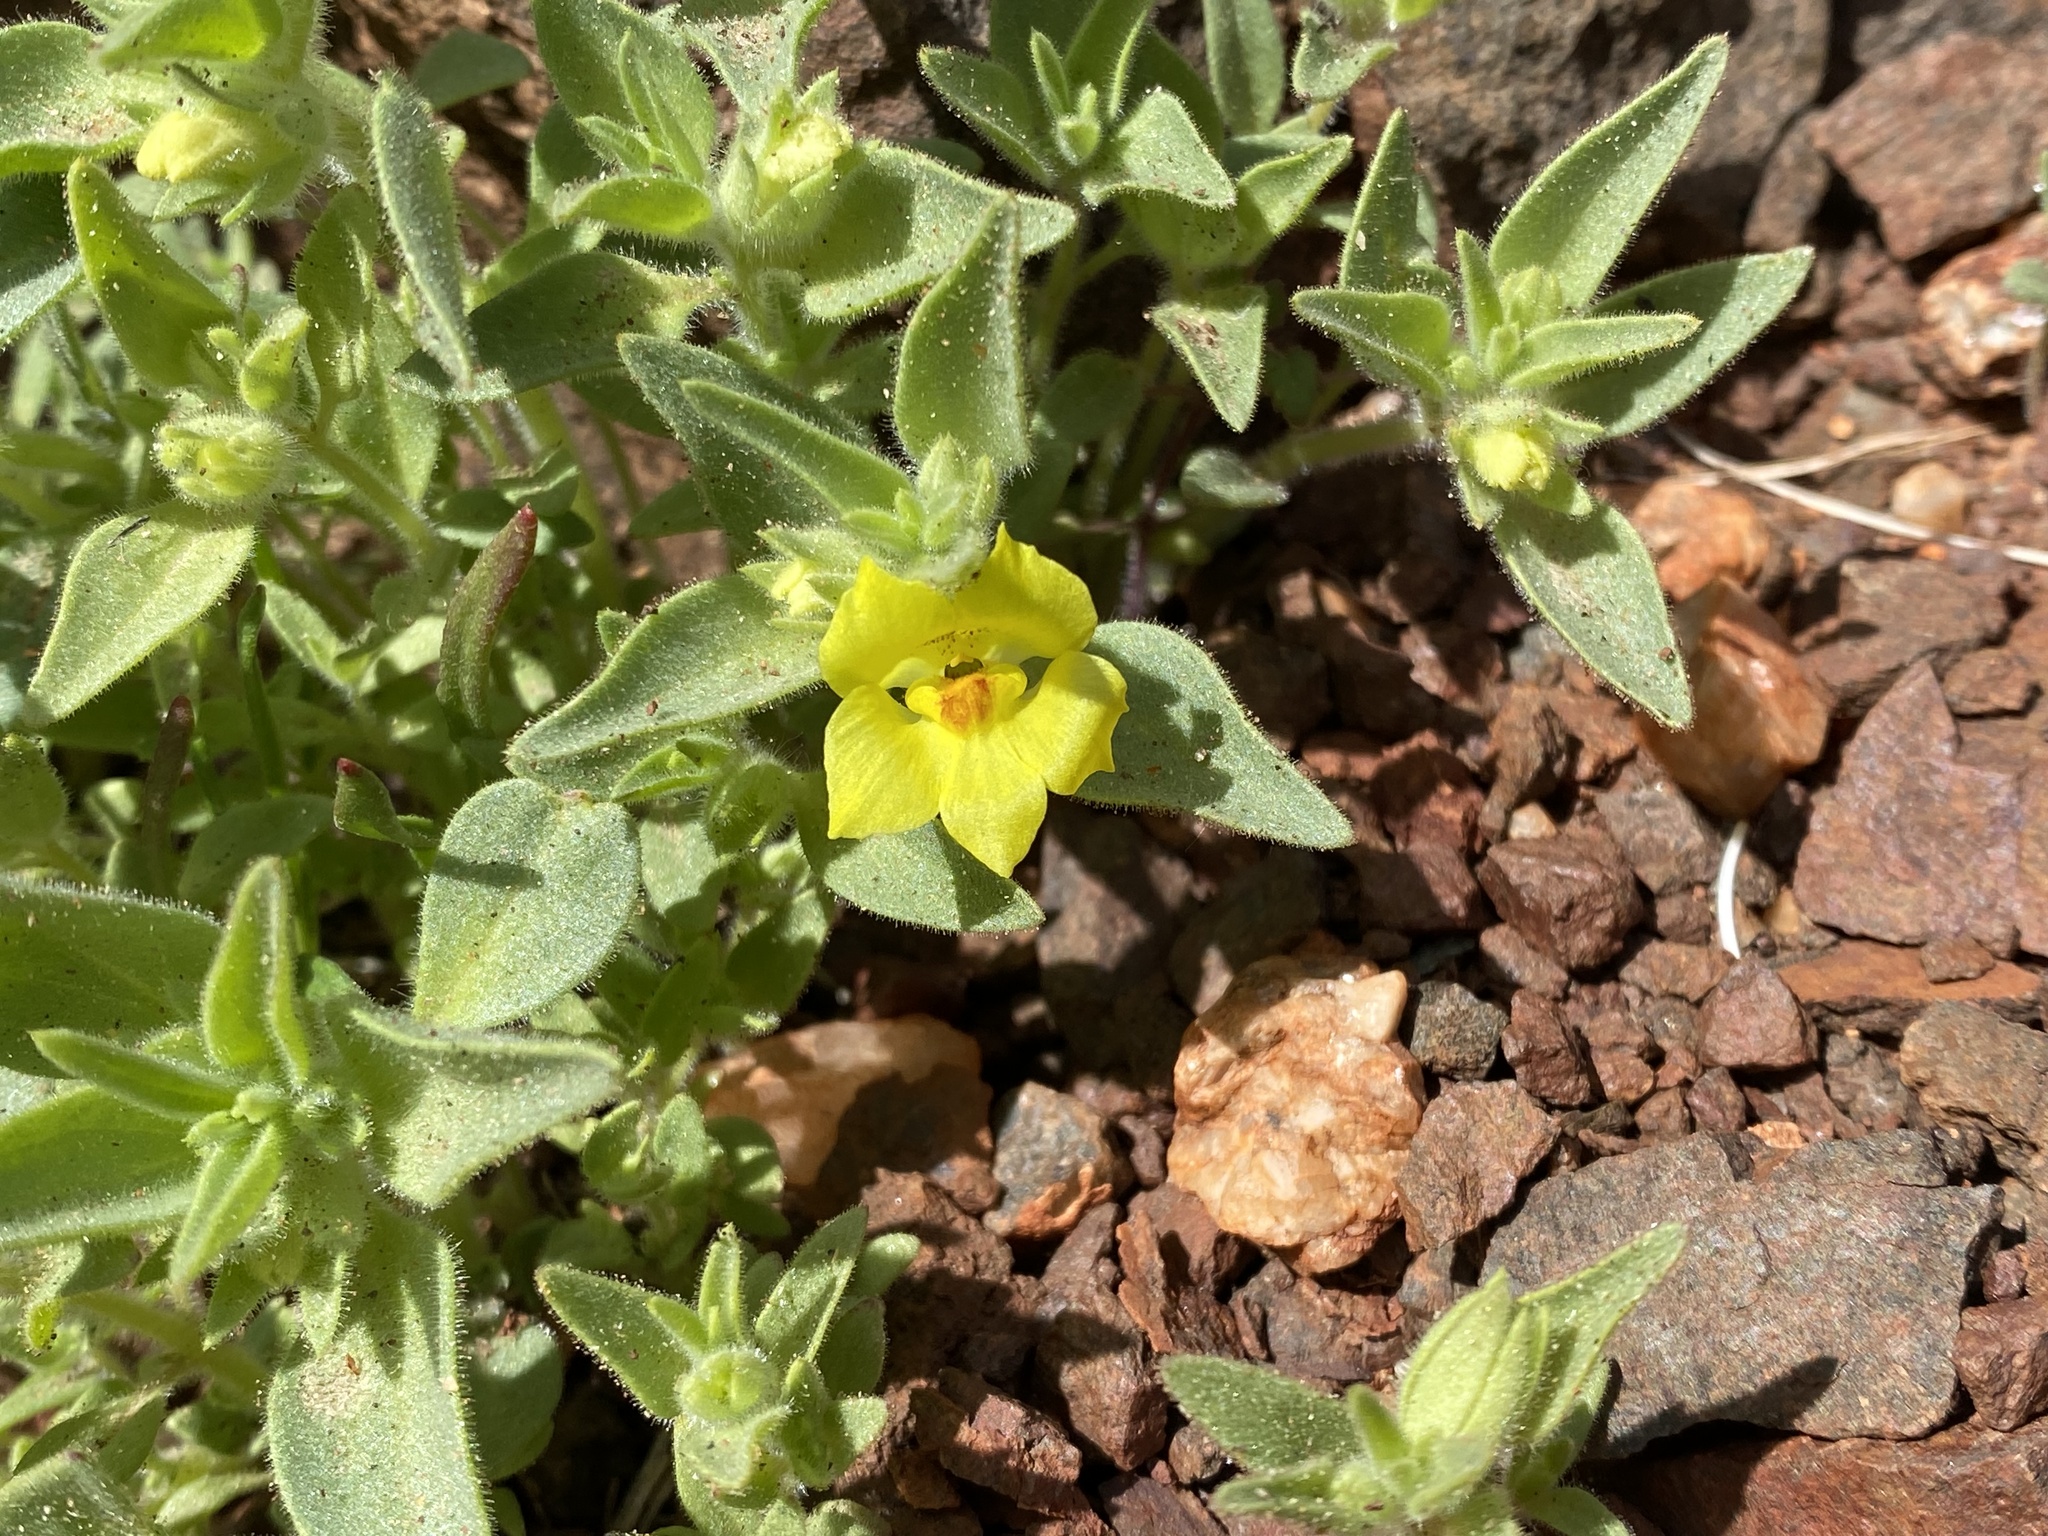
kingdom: Plantae
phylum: Tracheophyta
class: Magnoliopsida
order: Lamiales
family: Plantaginaceae
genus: Mohavea
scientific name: Mohavea breviflora
